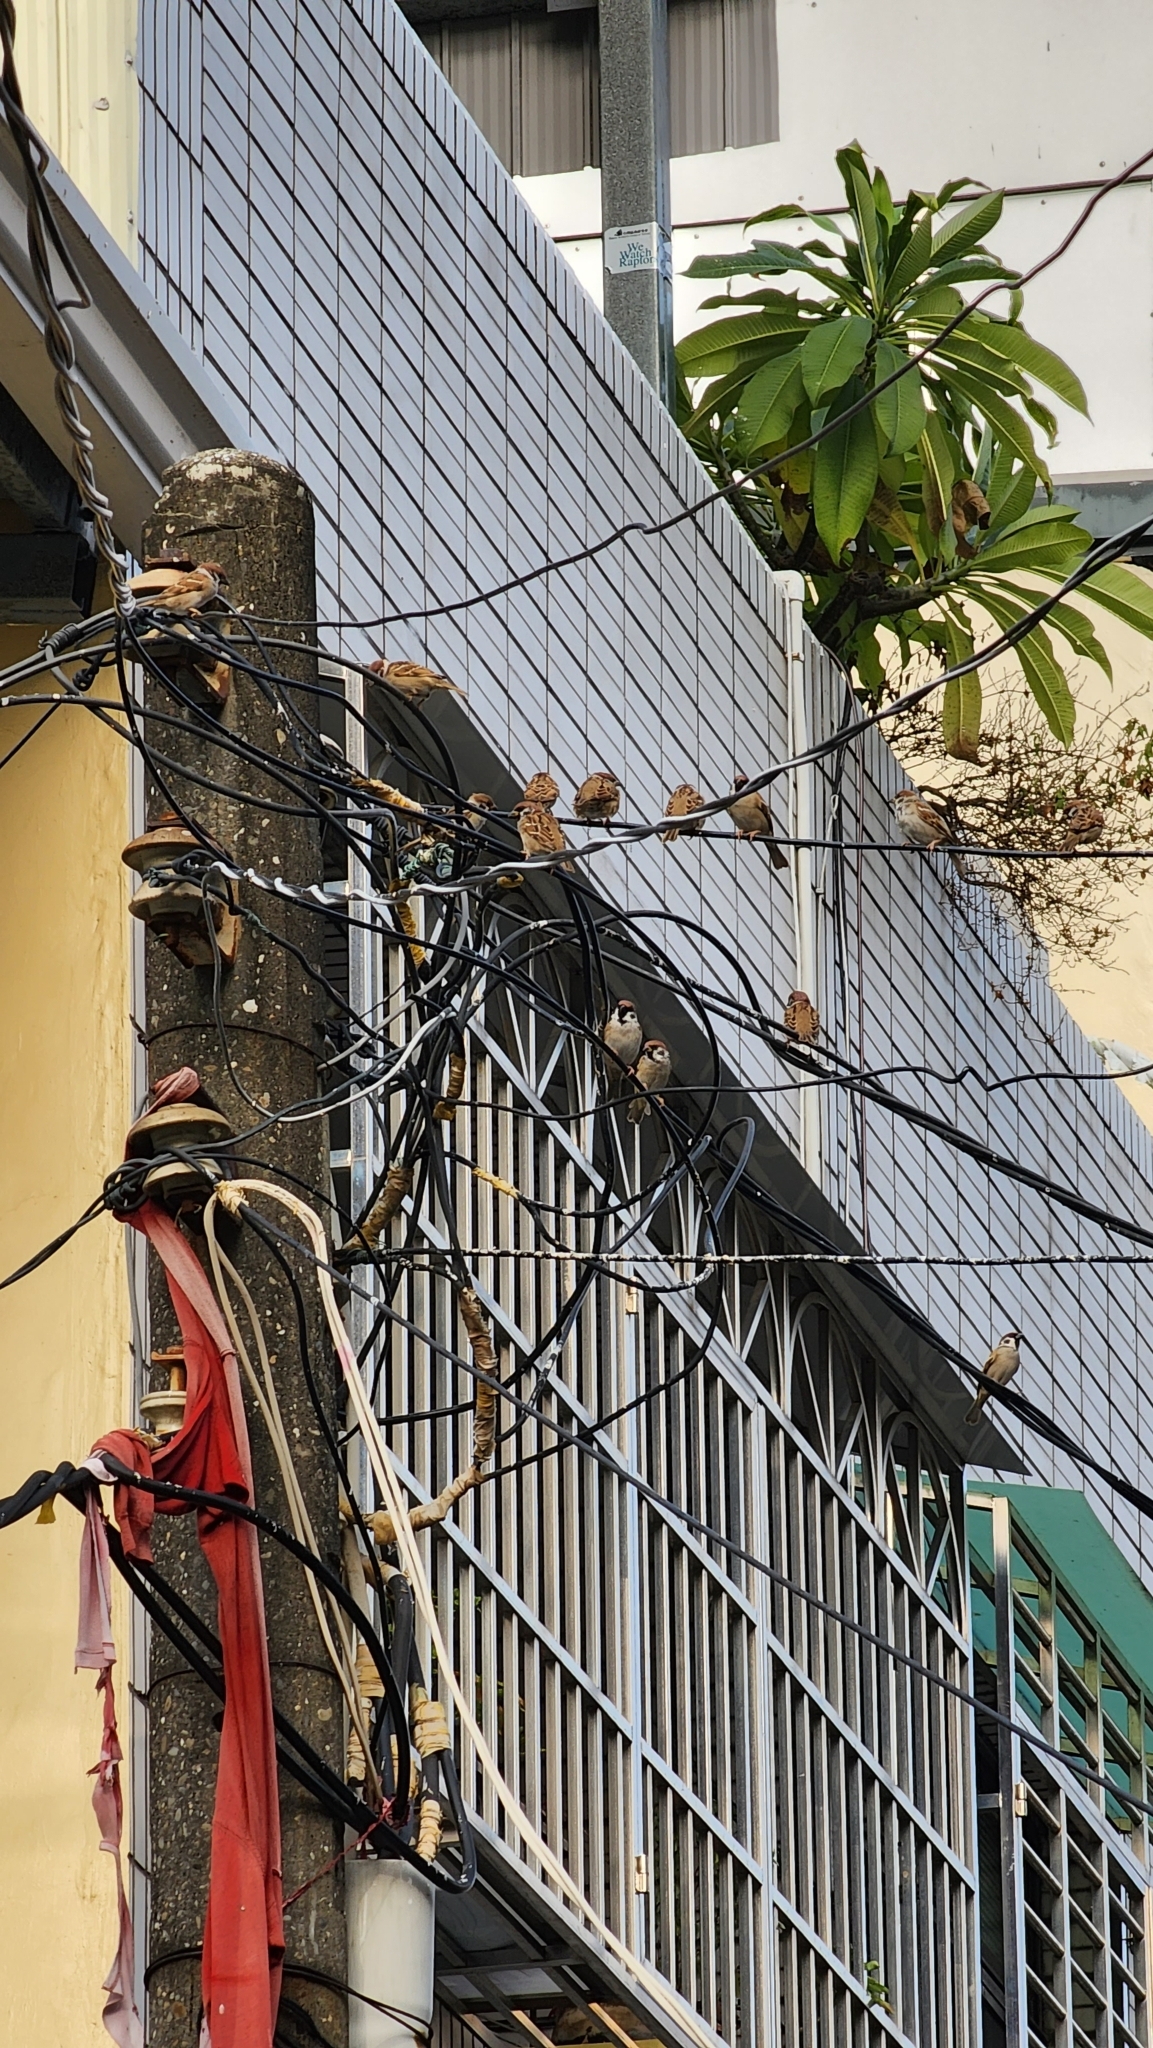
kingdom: Animalia
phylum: Chordata
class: Aves
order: Passeriformes
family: Passeridae
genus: Passer
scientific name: Passer montanus
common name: Eurasian tree sparrow
